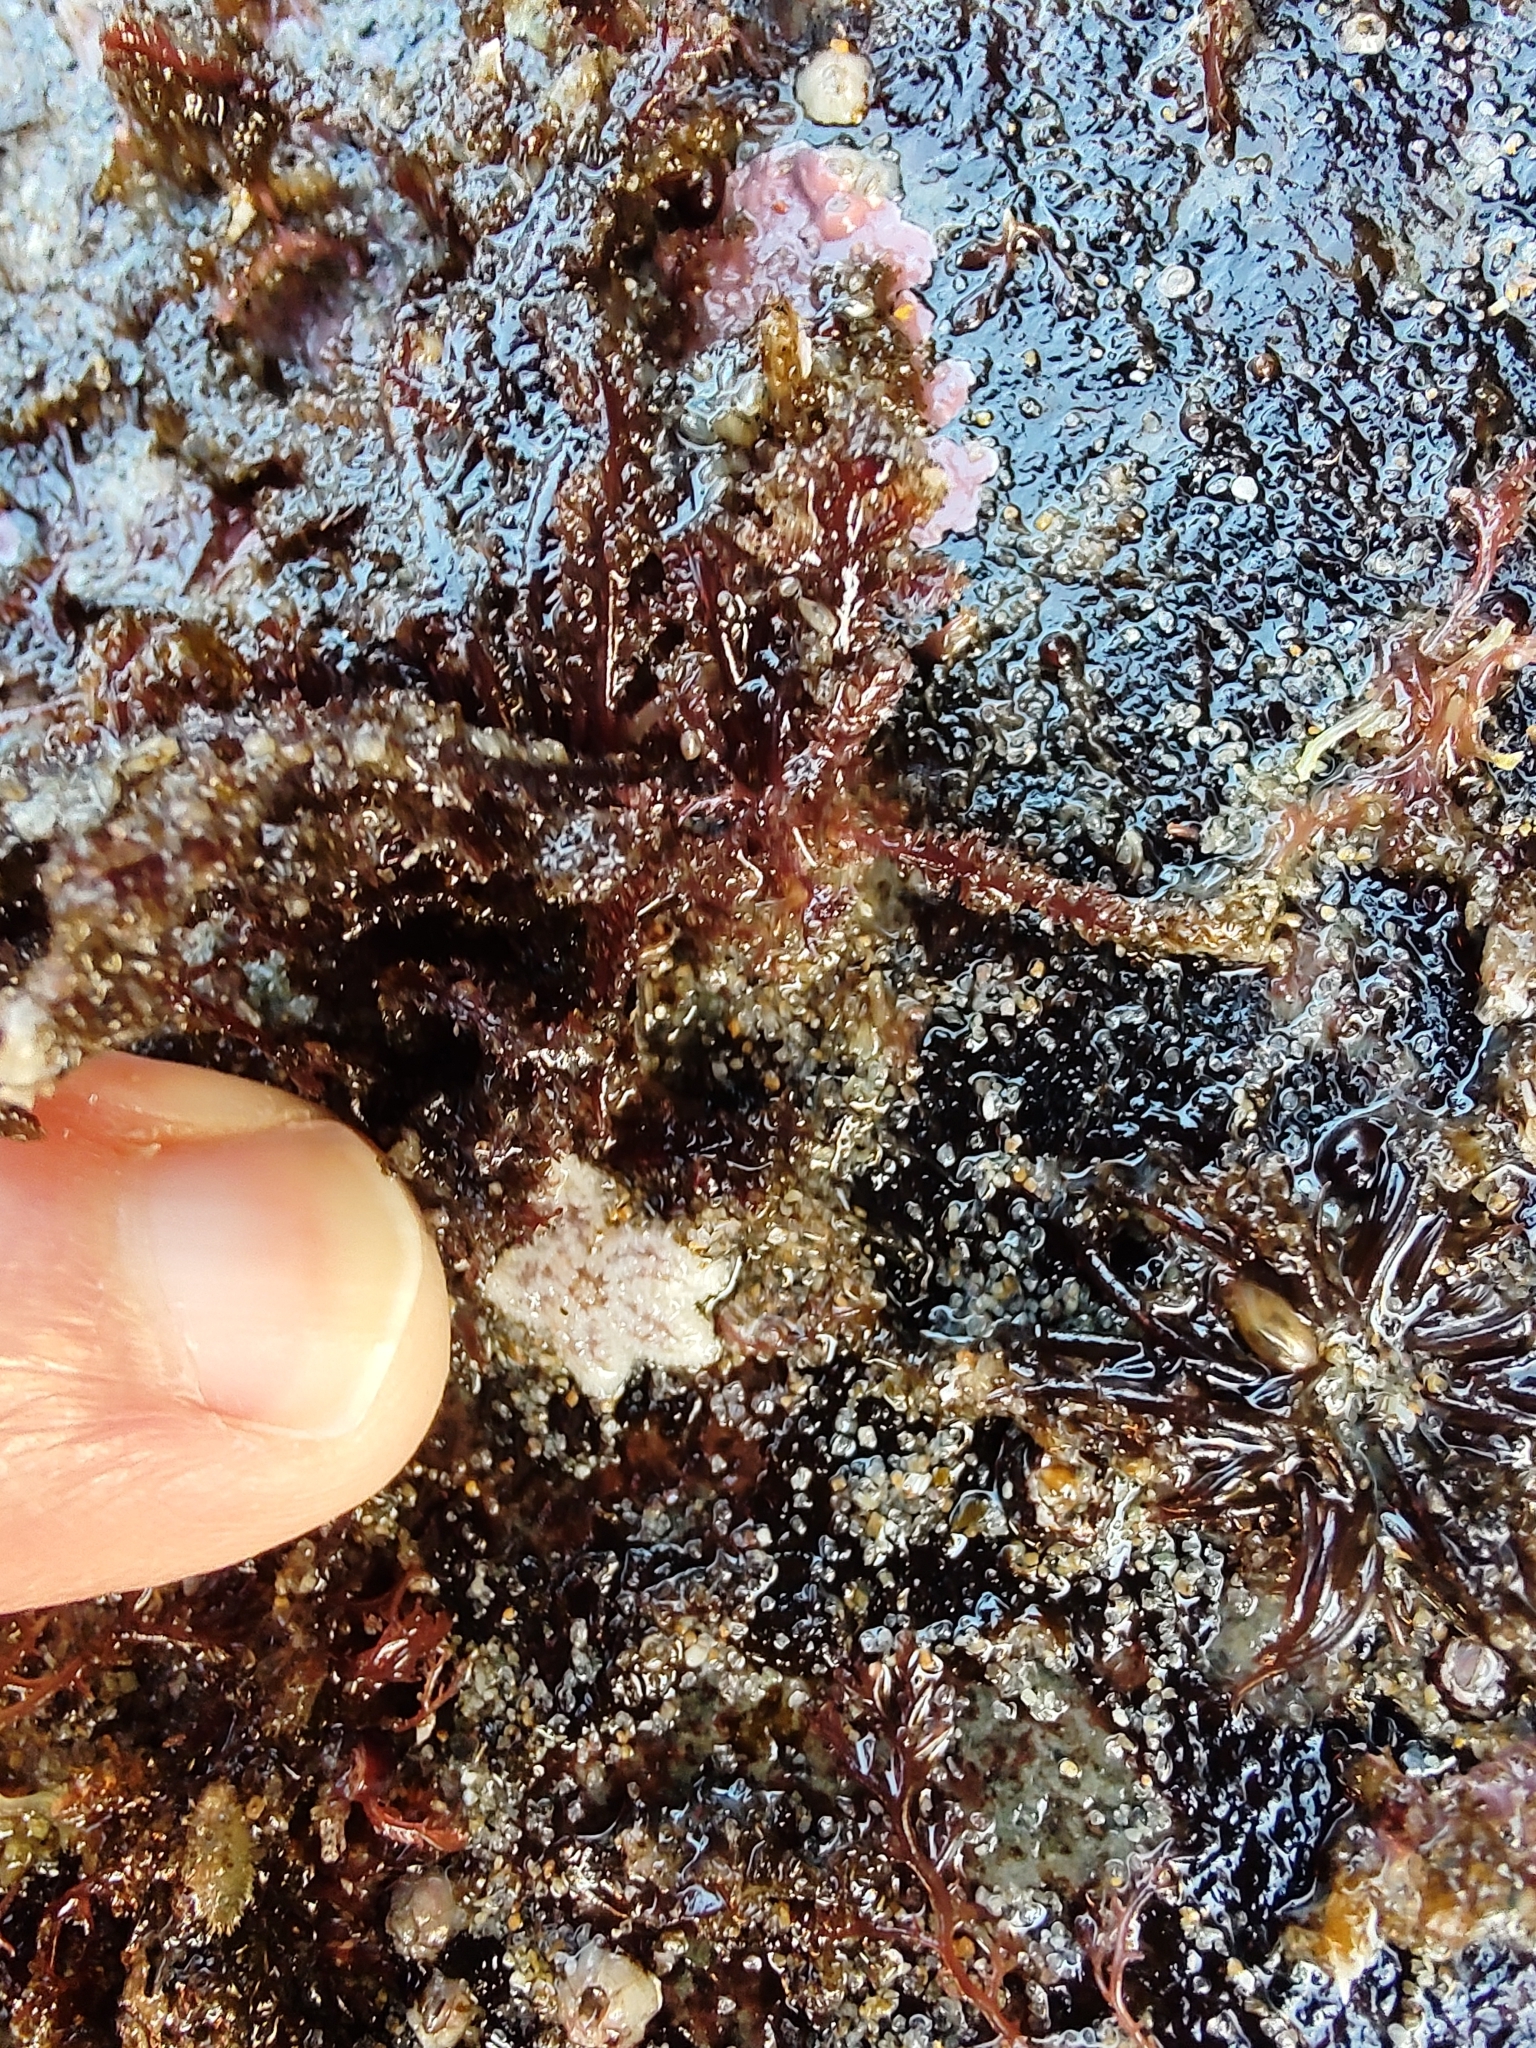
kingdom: Animalia
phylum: Echinodermata
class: Asteroidea
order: Forcipulatida
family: Asteriidae
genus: Pisaster
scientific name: Pisaster ochraceus
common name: Ochre stars
